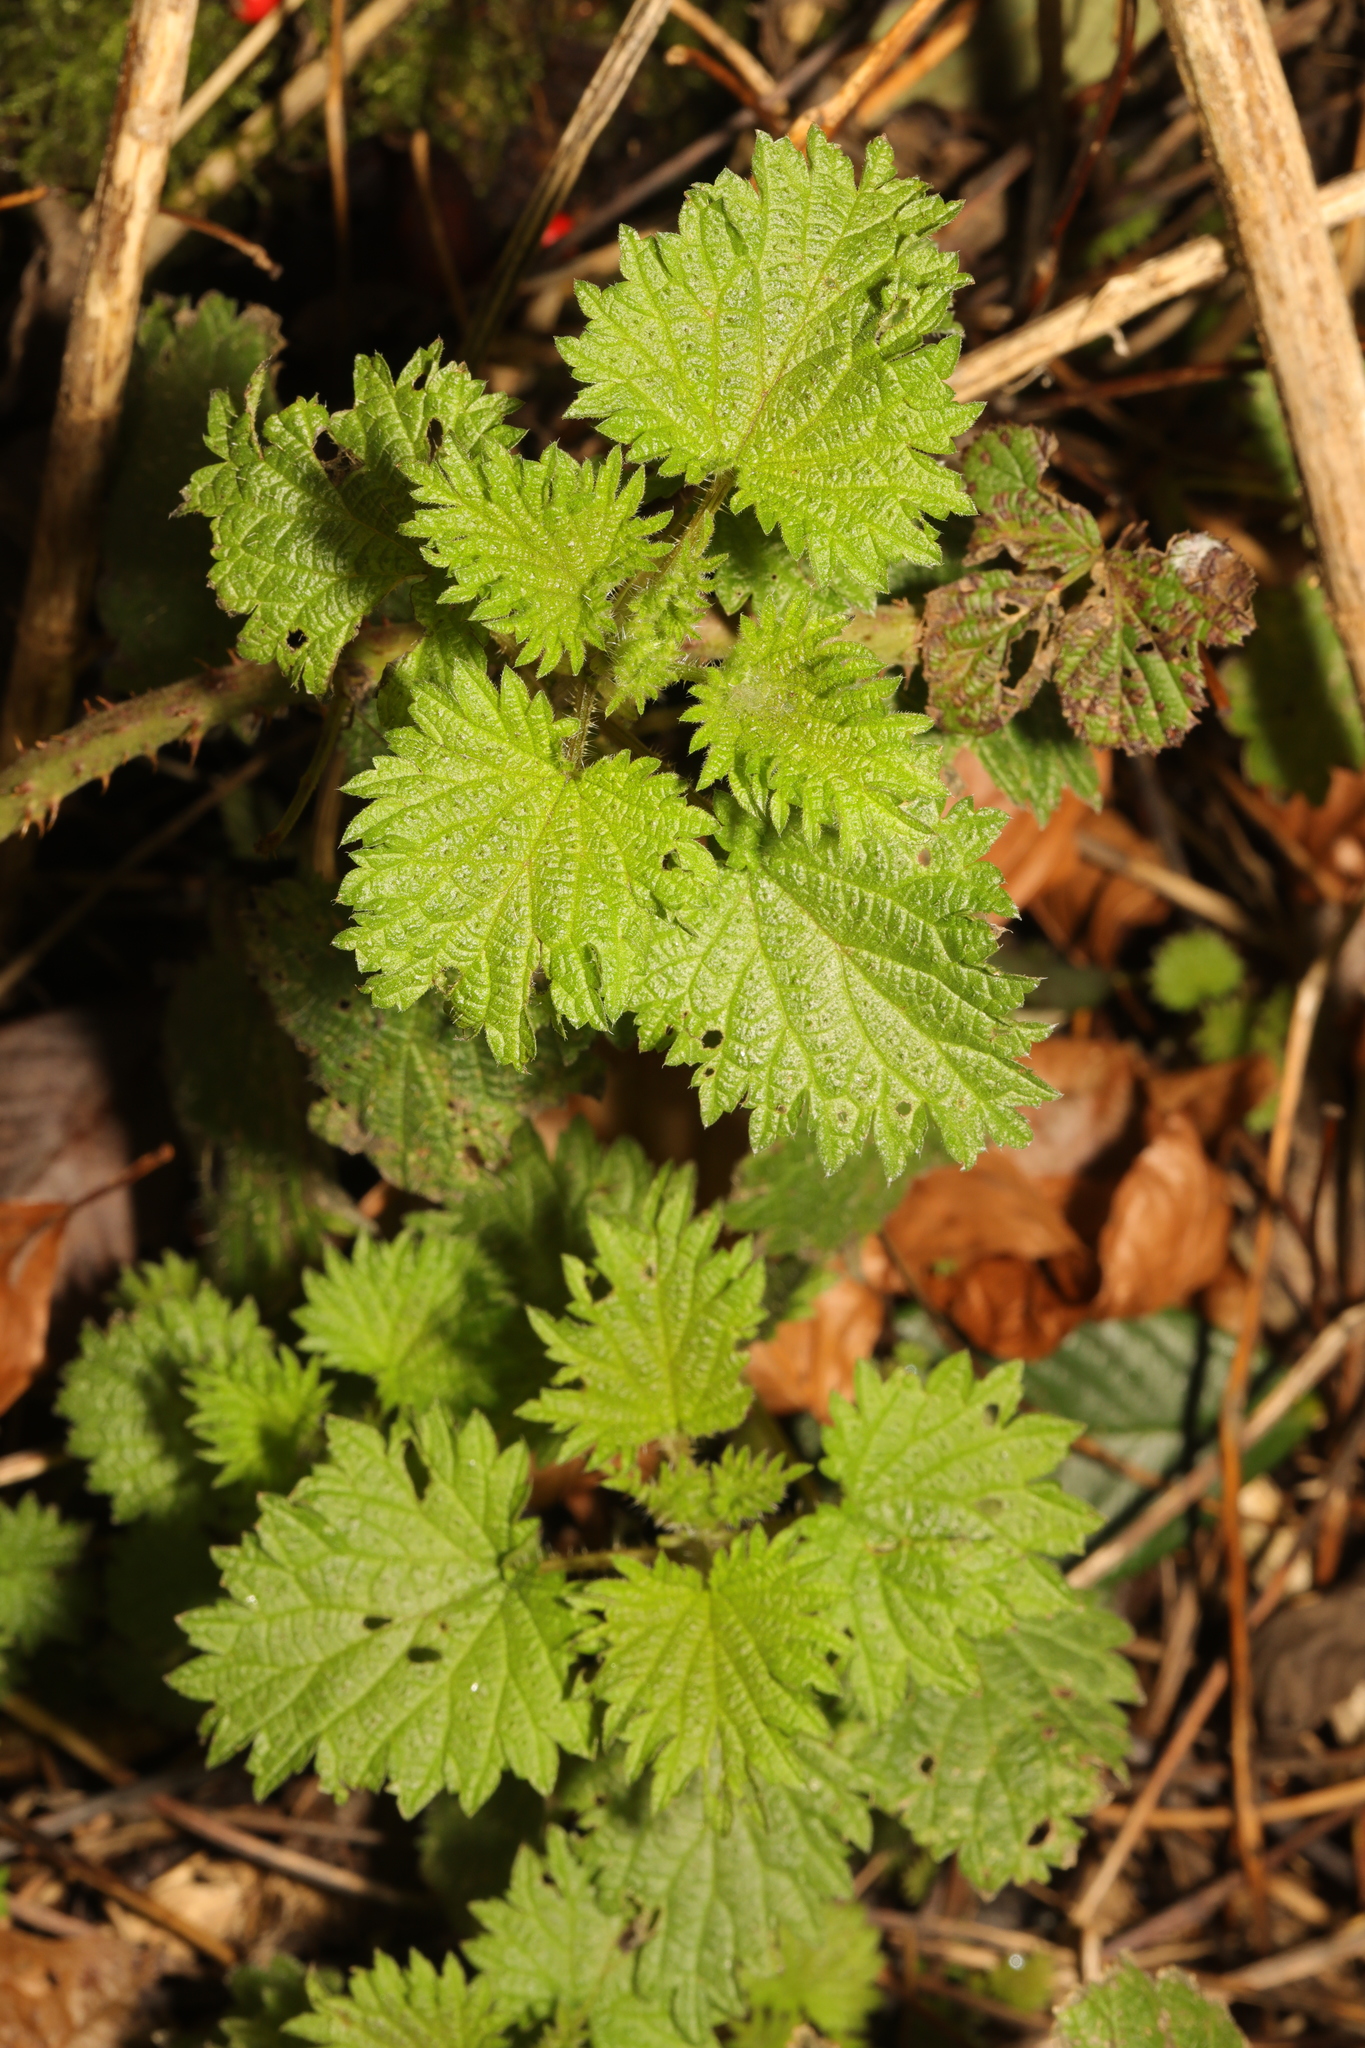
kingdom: Plantae
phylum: Tracheophyta
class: Magnoliopsida
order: Rosales
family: Urticaceae
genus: Urtica
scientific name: Urtica dioica
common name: Common nettle
